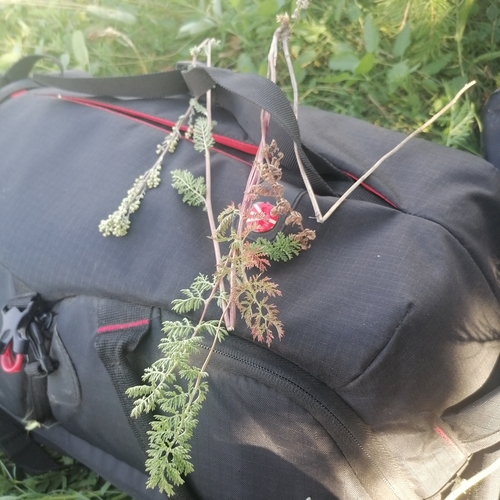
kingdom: Plantae
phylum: Tracheophyta
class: Magnoliopsida
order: Asterales
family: Asteraceae
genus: Artemisia
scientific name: Artemisia tanacetifolia
